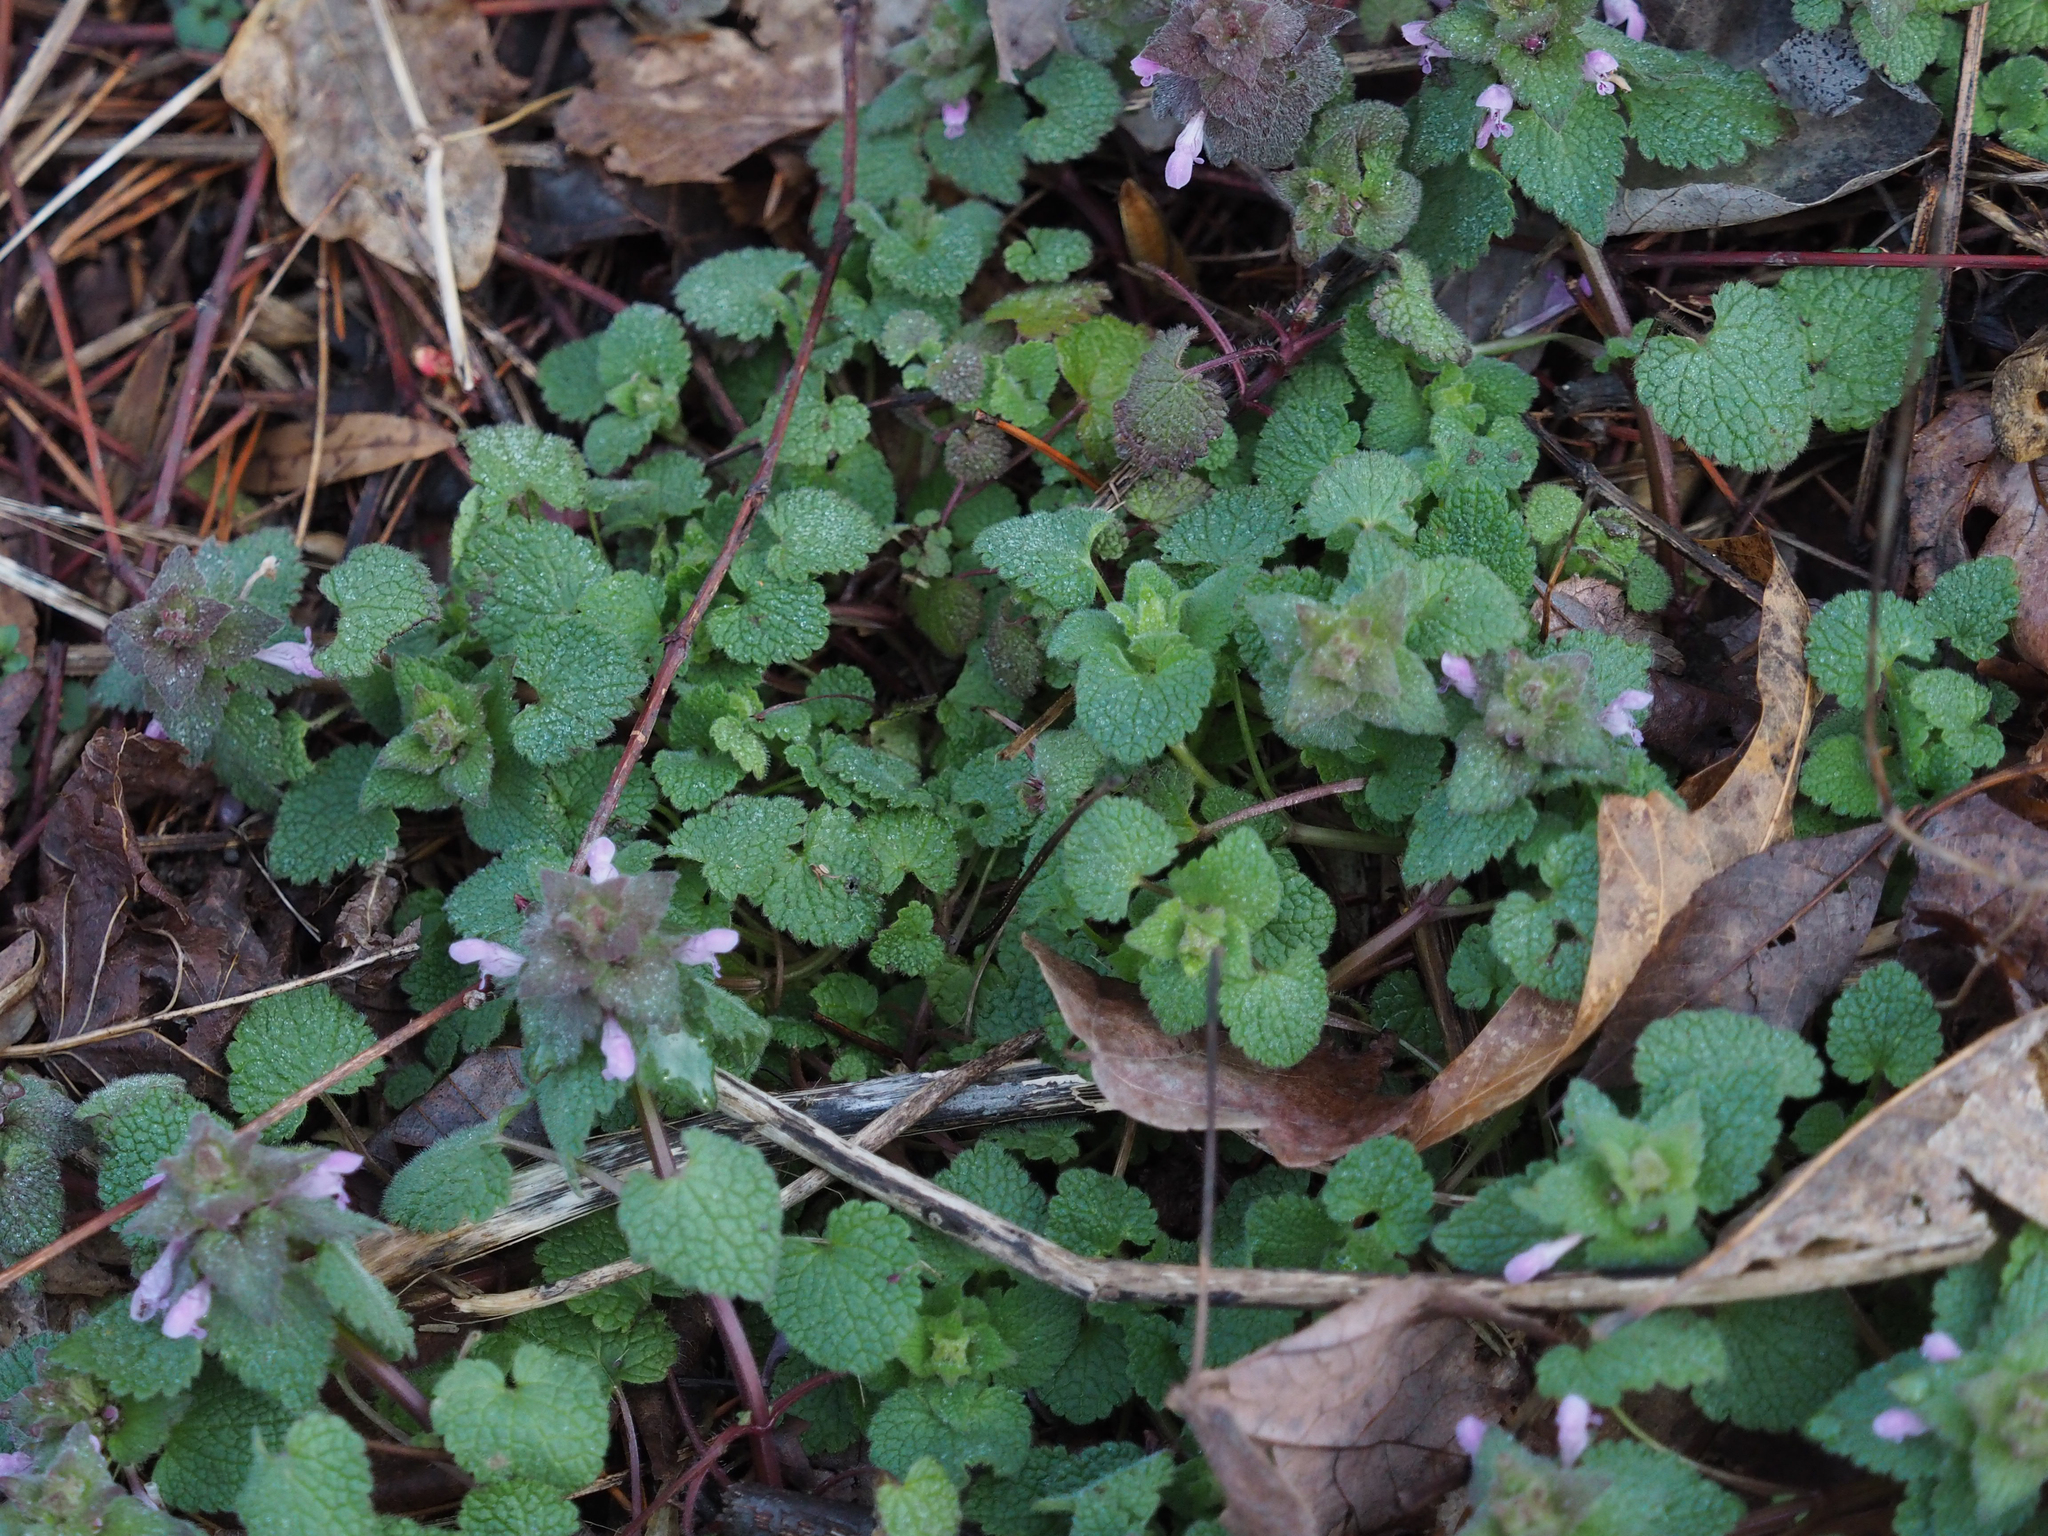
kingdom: Plantae
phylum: Tracheophyta
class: Magnoliopsida
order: Lamiales
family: Lamiaceae
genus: Lamium
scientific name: Lamium purpureum
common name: Red dead-nettle
